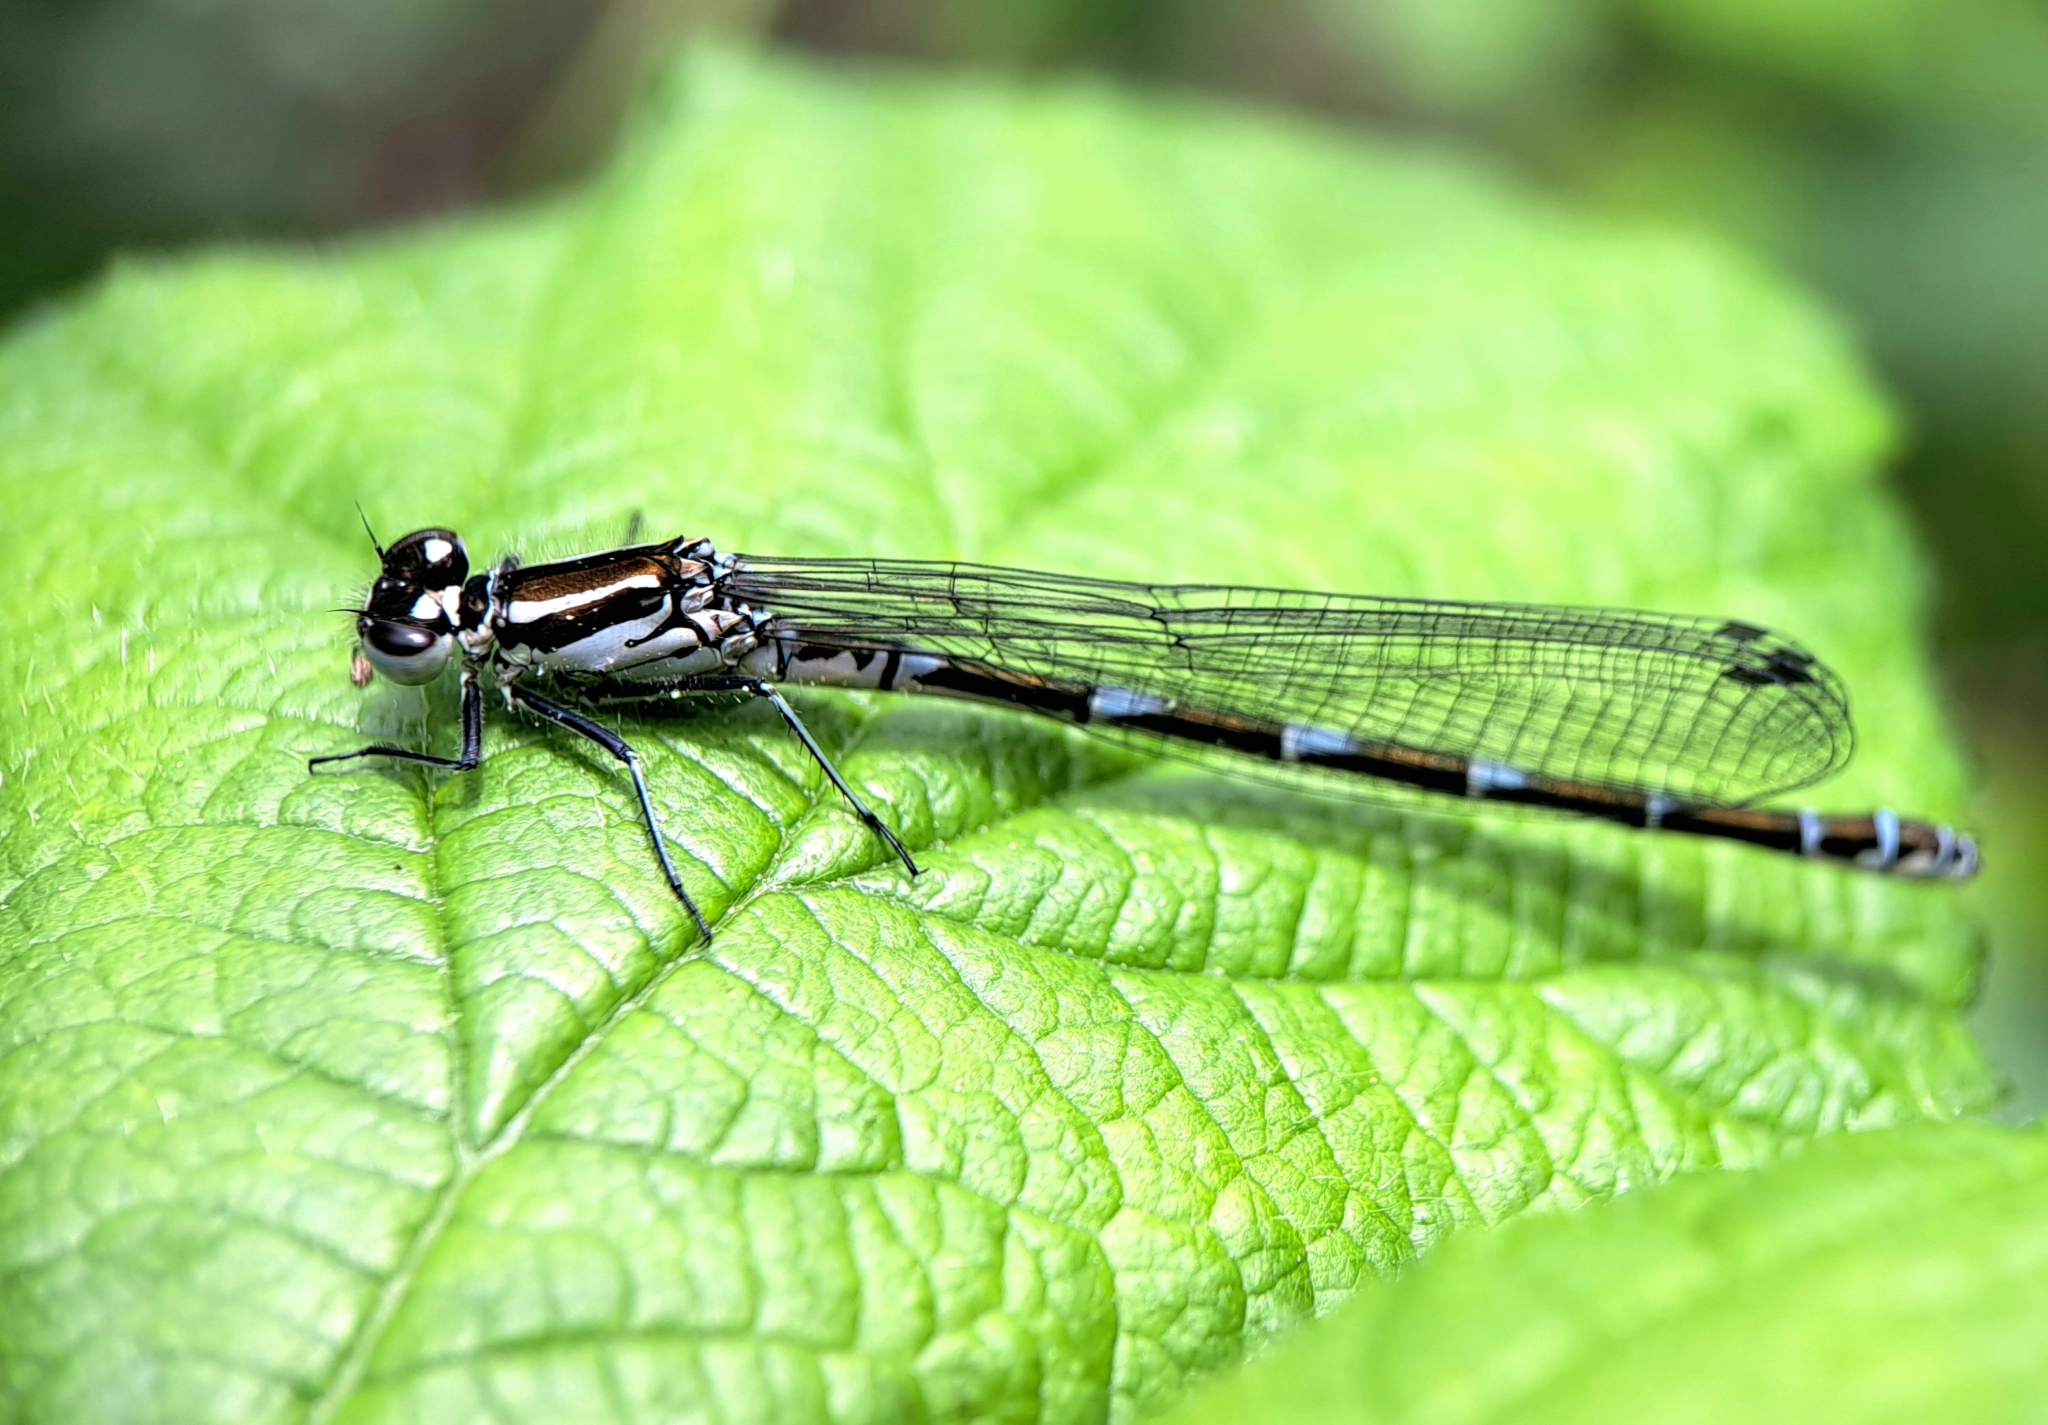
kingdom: Animalia
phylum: Arthropoda
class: Insecta
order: Odonata
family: Coenagrionidae
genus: Coenagrion
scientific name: Coenagrion puella
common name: Azure damselfly
